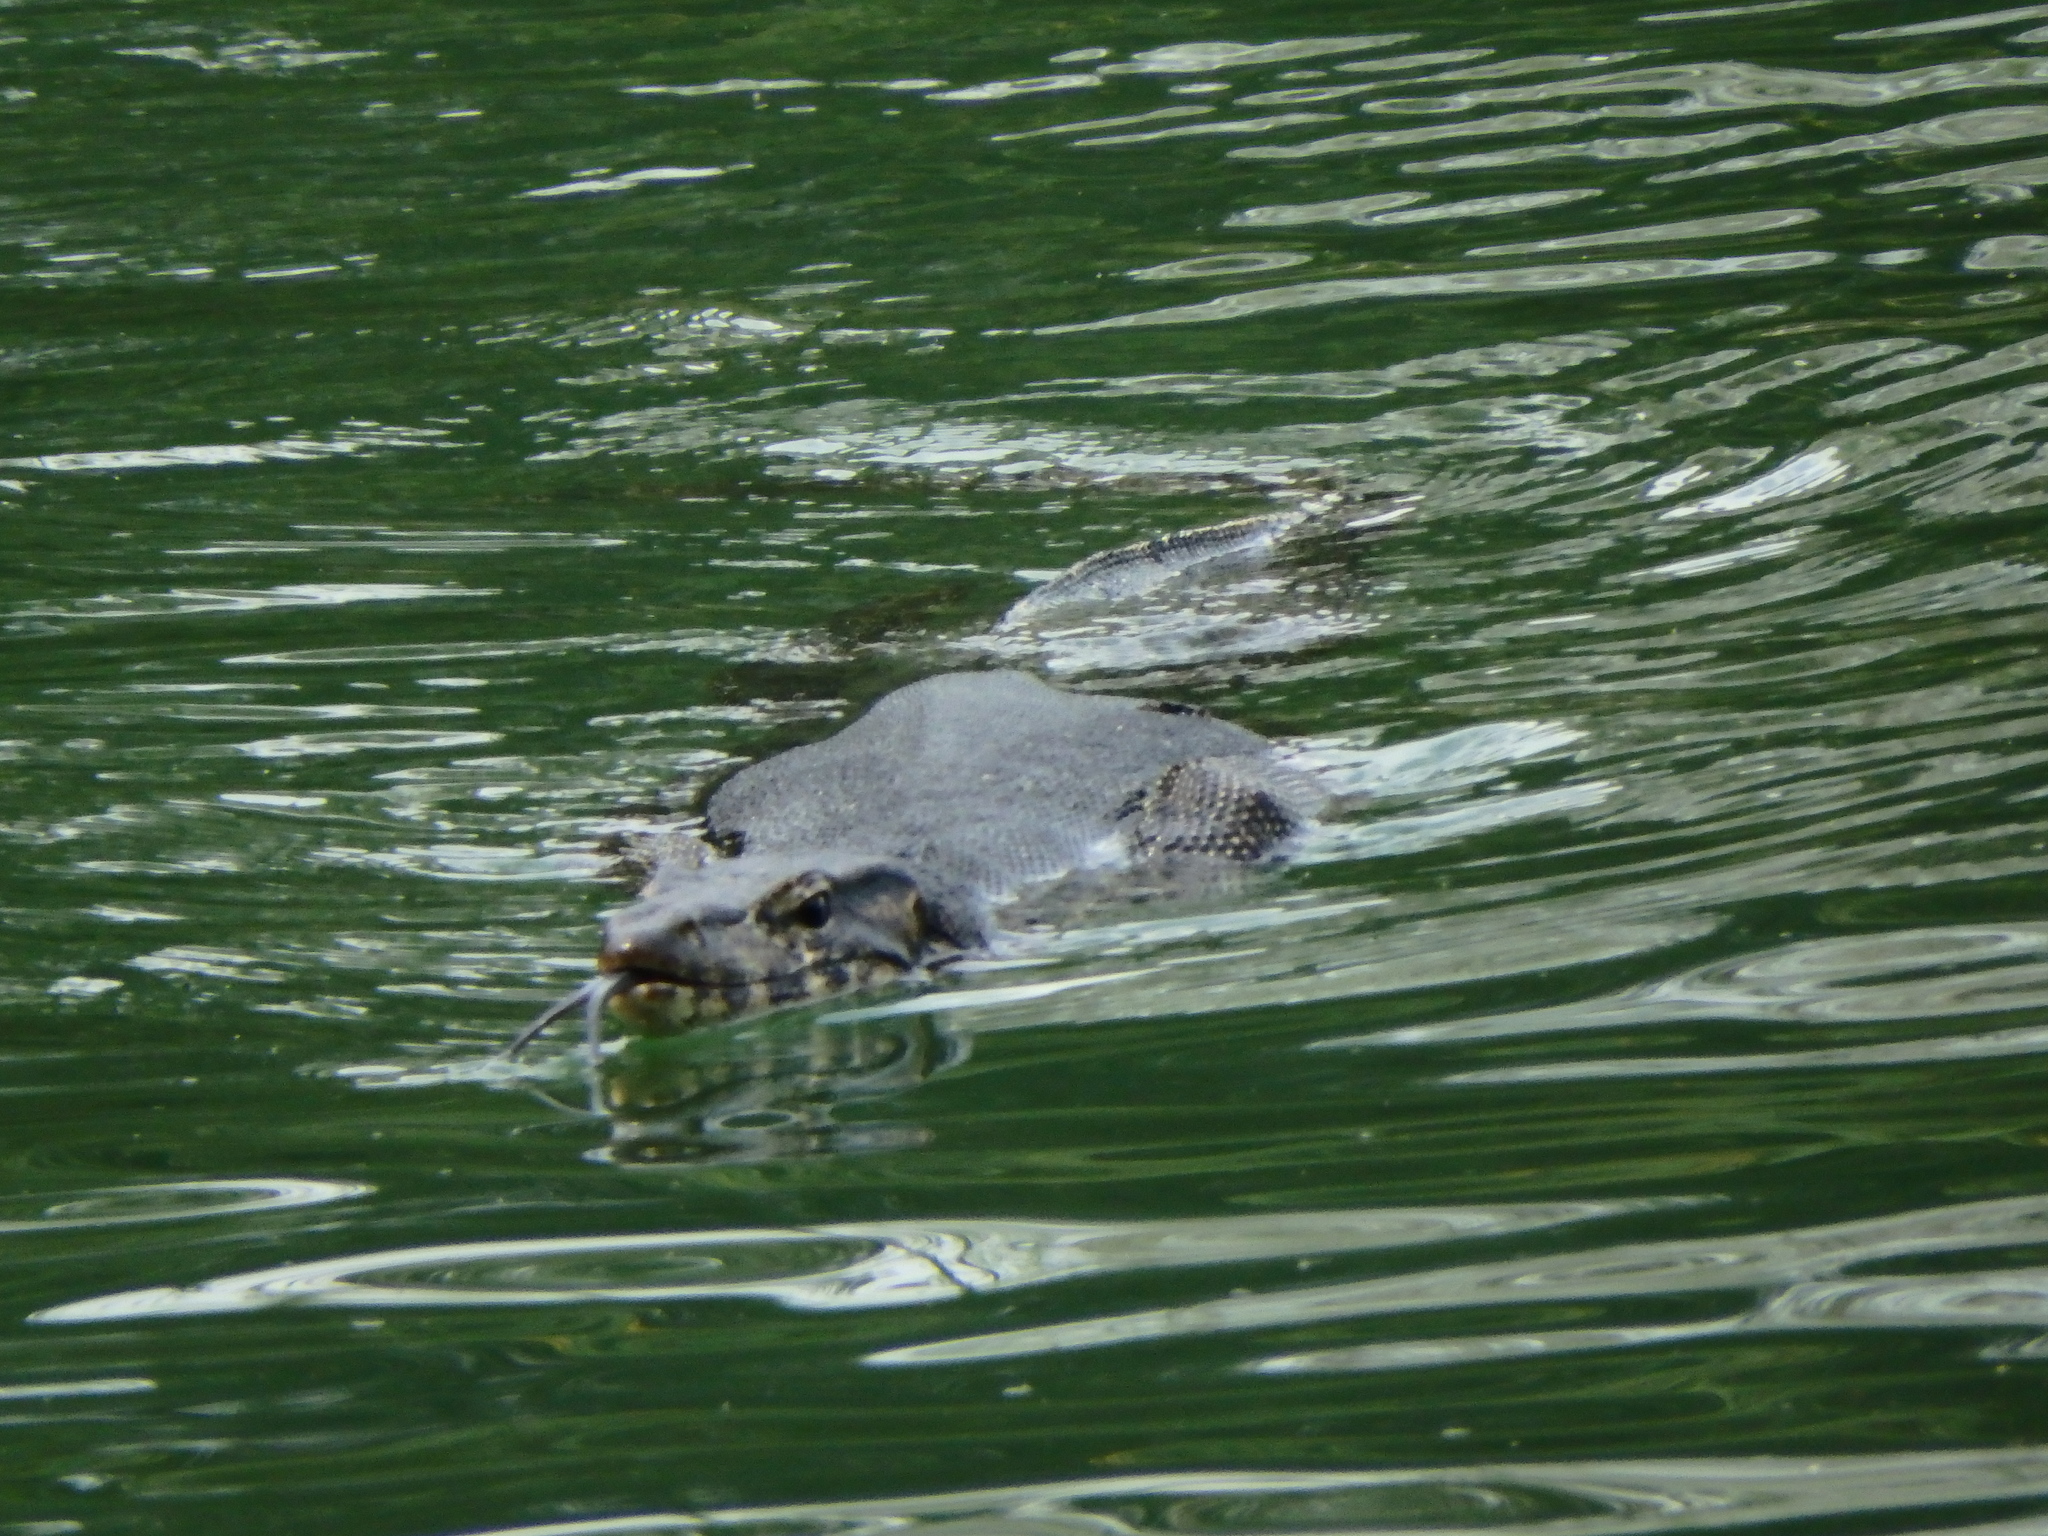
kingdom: Animalia
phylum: Chordata
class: Squamata
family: Varanidae
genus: Varanus
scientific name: Varanus salvator
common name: Common water monitor
